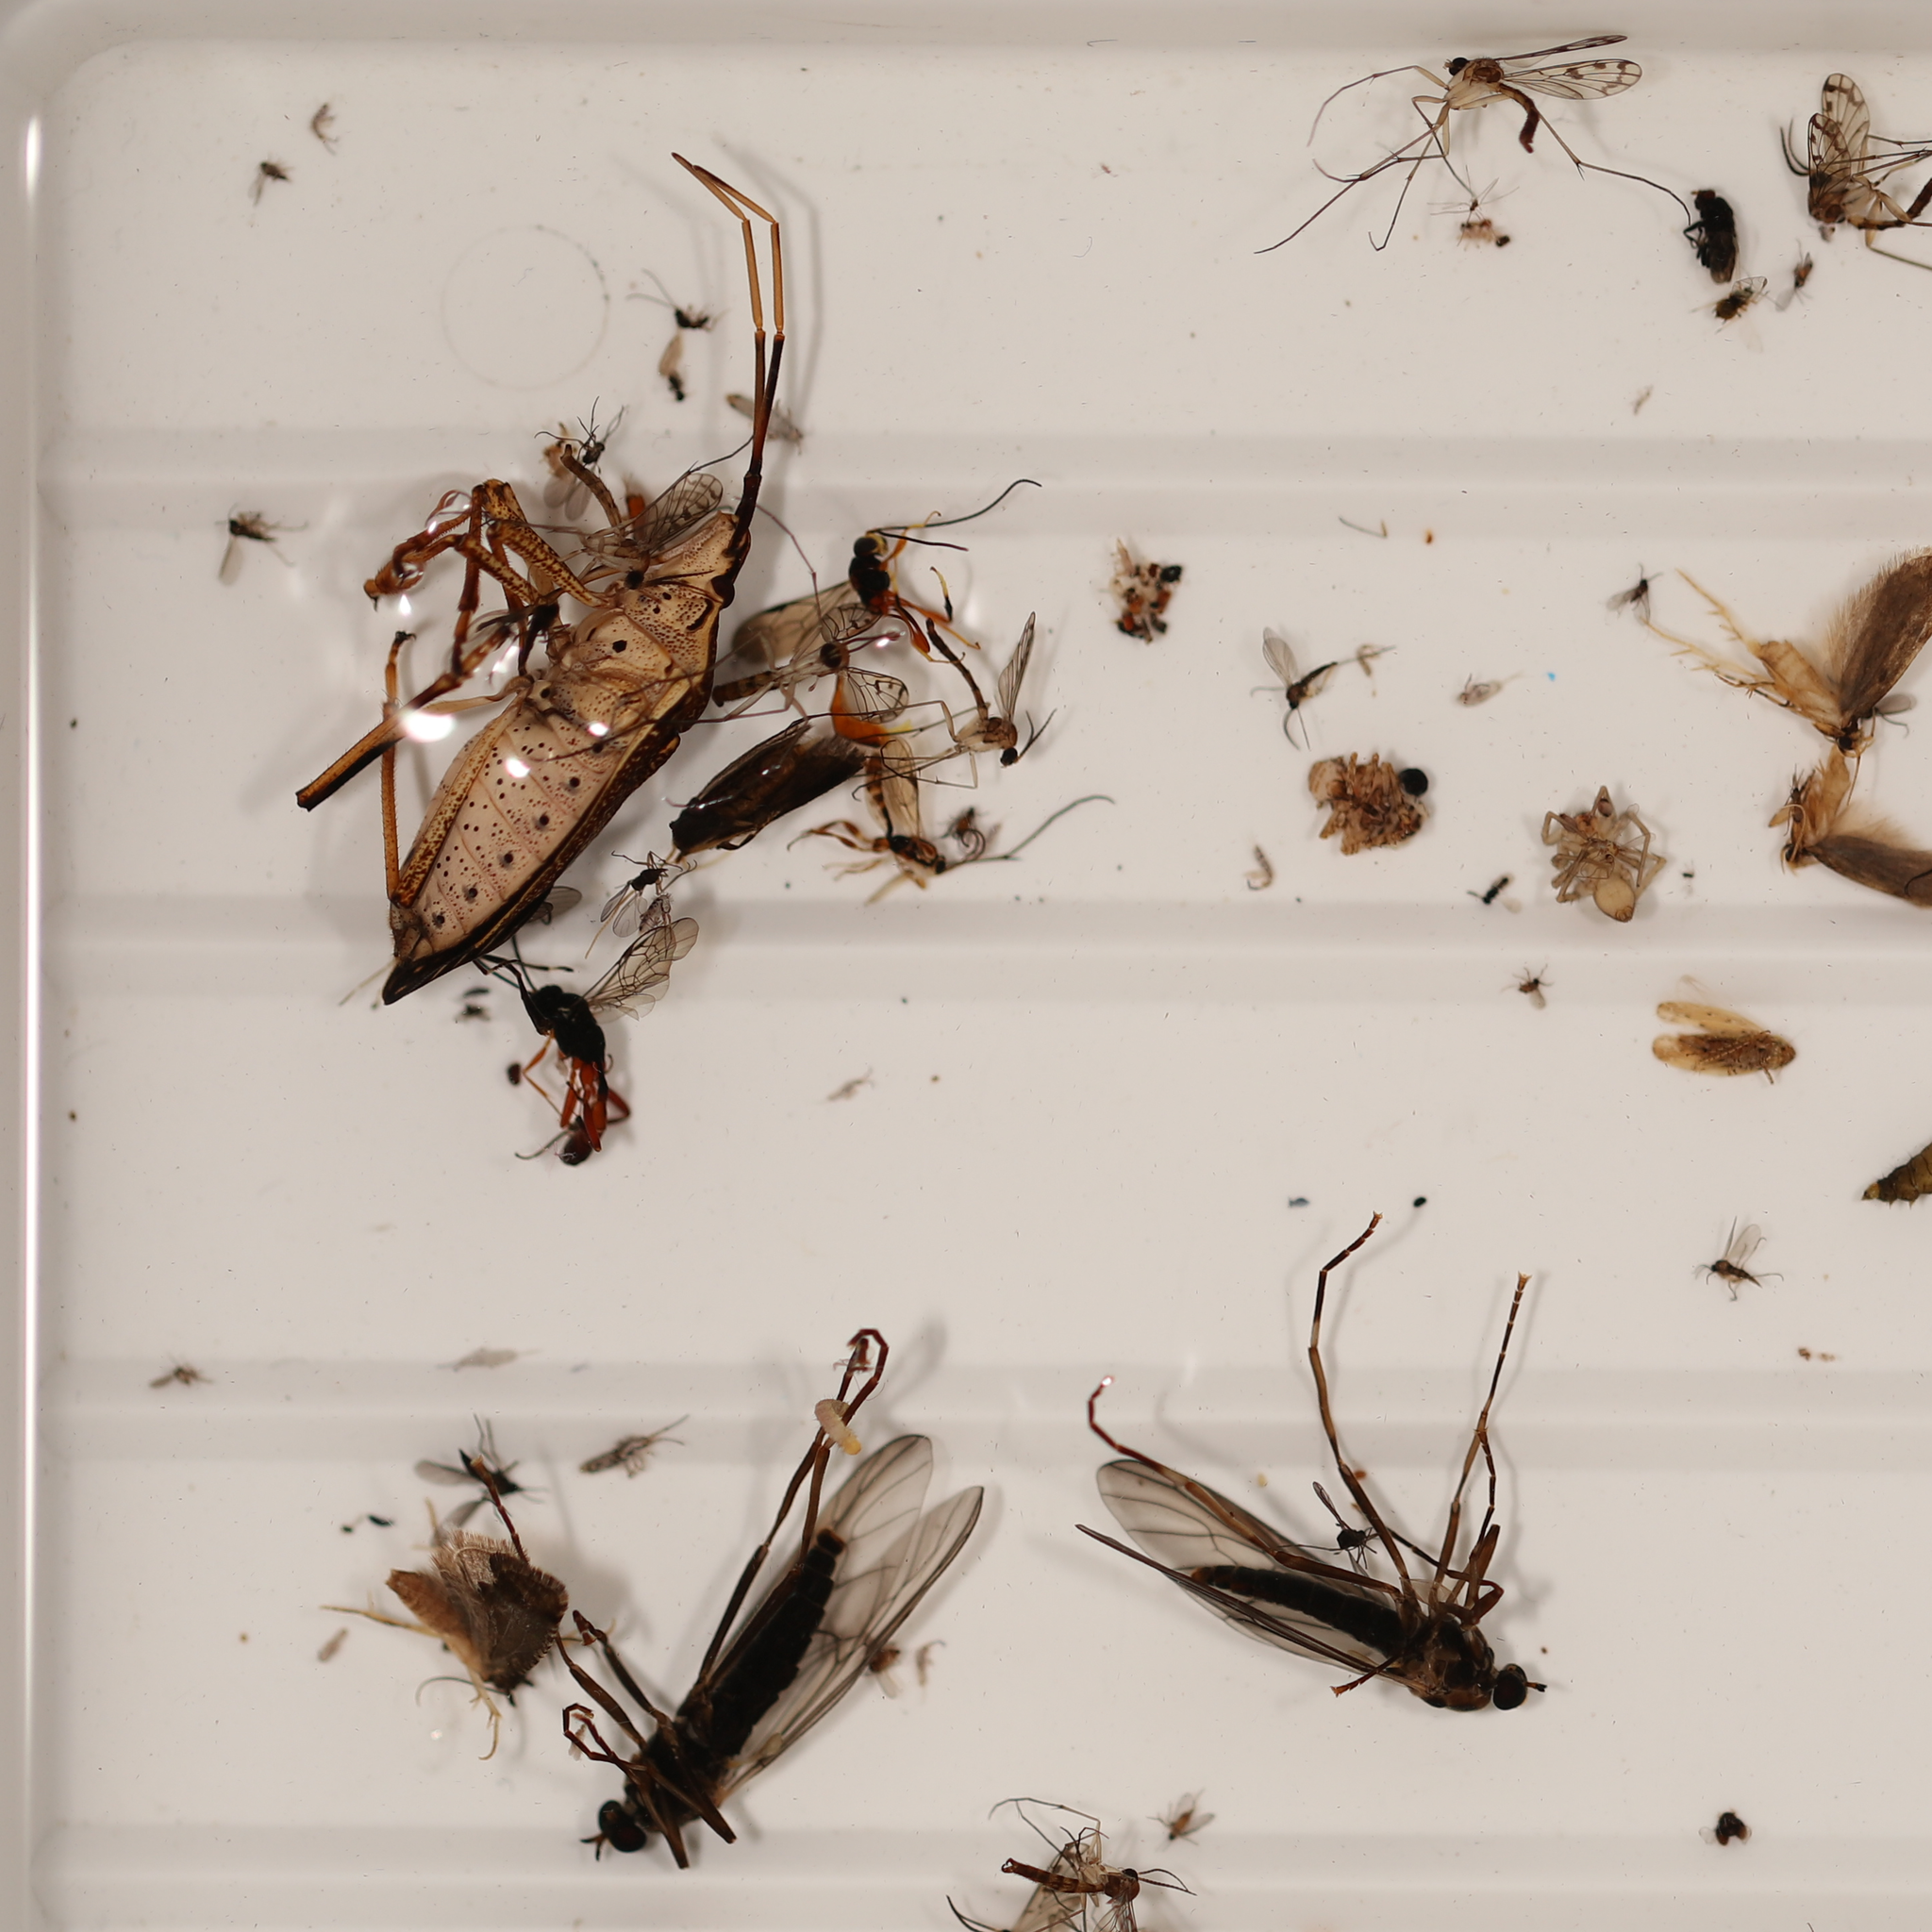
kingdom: Animalia
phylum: Arthropoda
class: Insecta
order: Hemiptera
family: Pentatomidae
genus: Poecilometis
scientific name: Poecilometis
